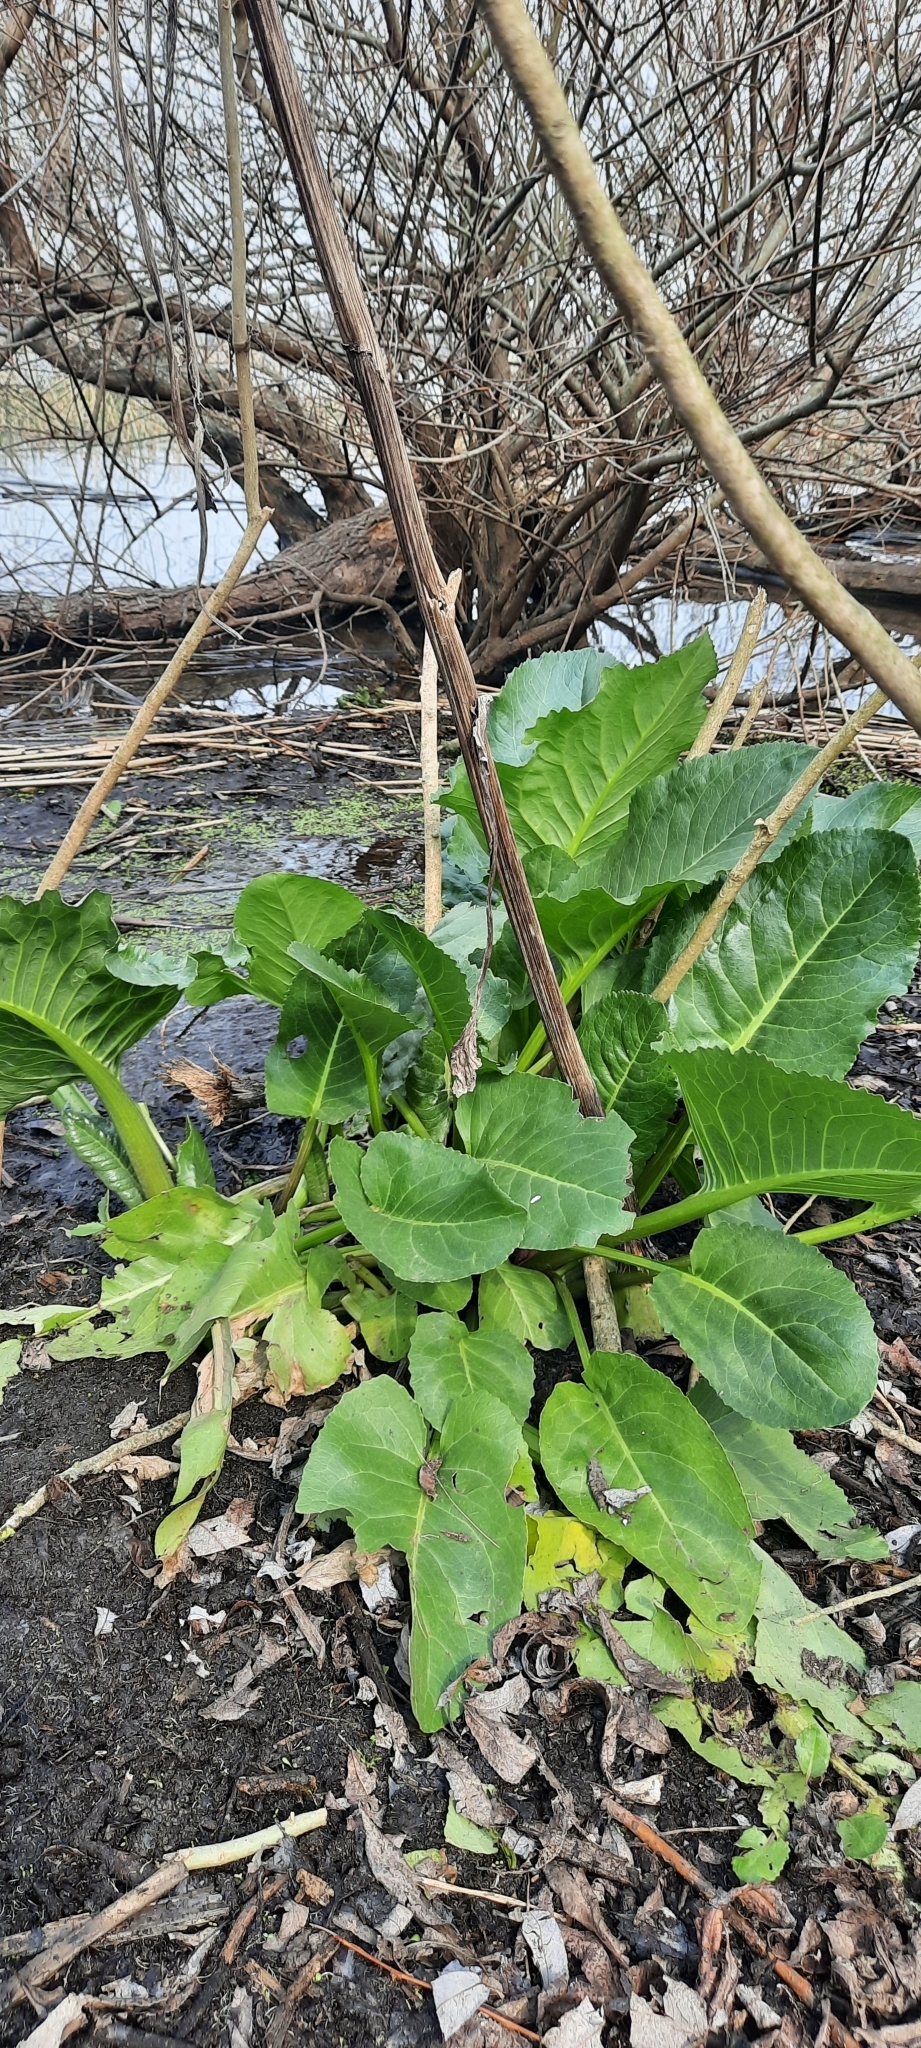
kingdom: Plantae
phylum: Tracheophyta
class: Magnoliopsida
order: Asterales
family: Asteraceae
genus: Senecio
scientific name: Senecio bonariensis
